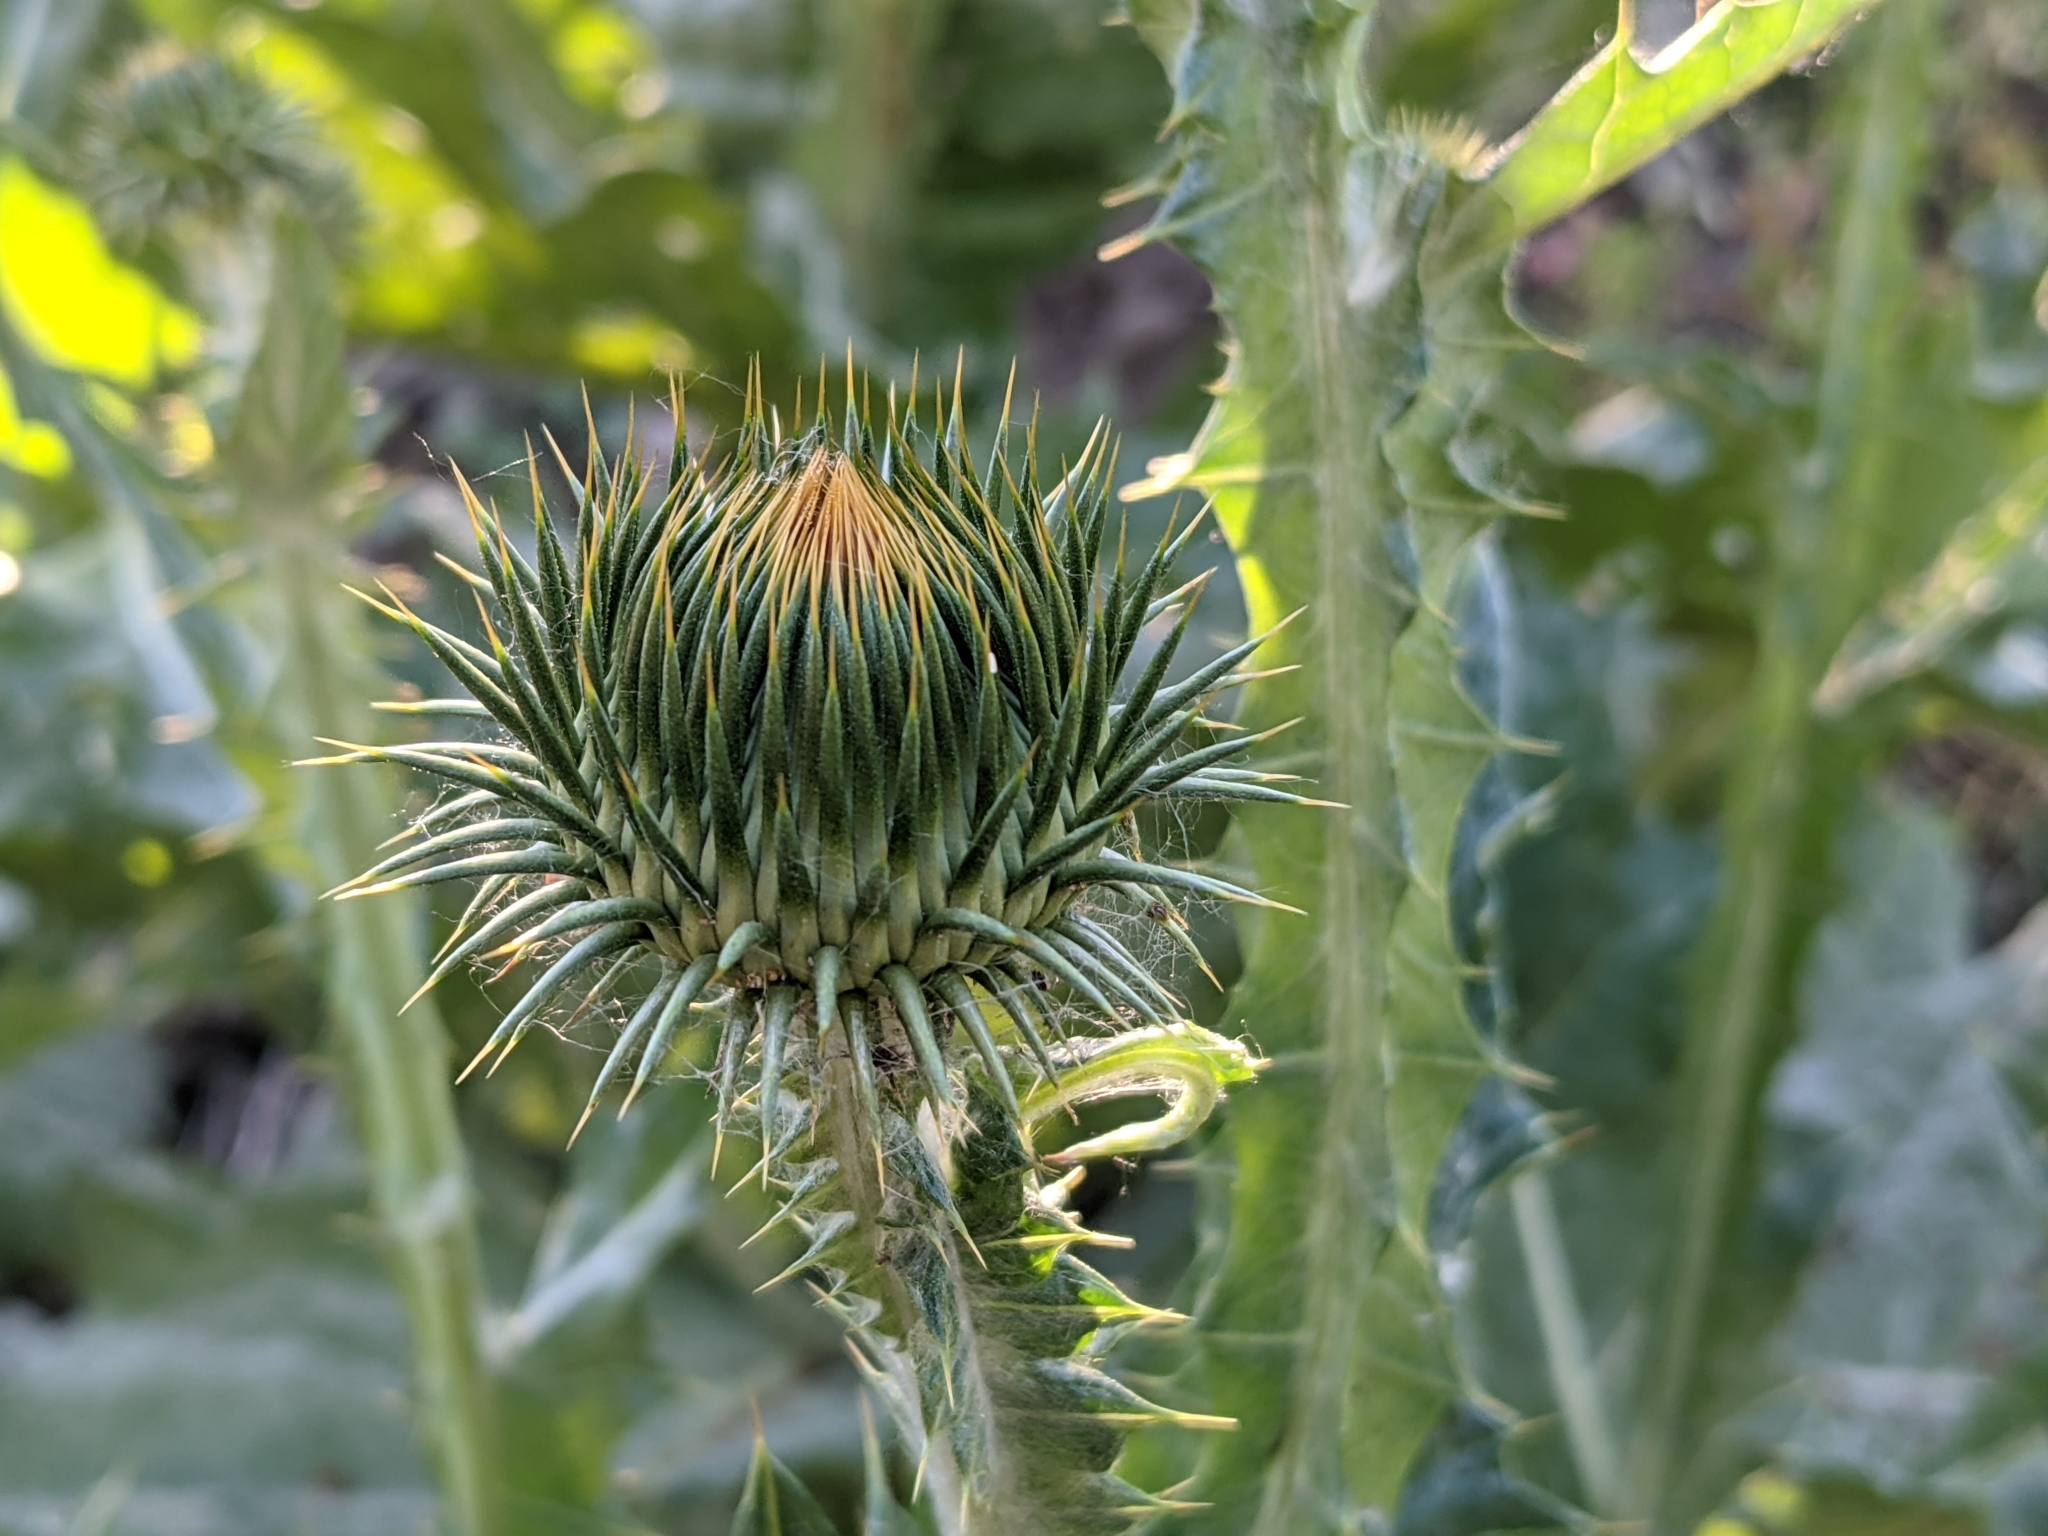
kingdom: Plantae
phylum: Tracheophyta
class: Magnoliopsida
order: Asterales
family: Asteraceae
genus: Onopordum
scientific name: Onopordum acanthium
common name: Scotch thistle
